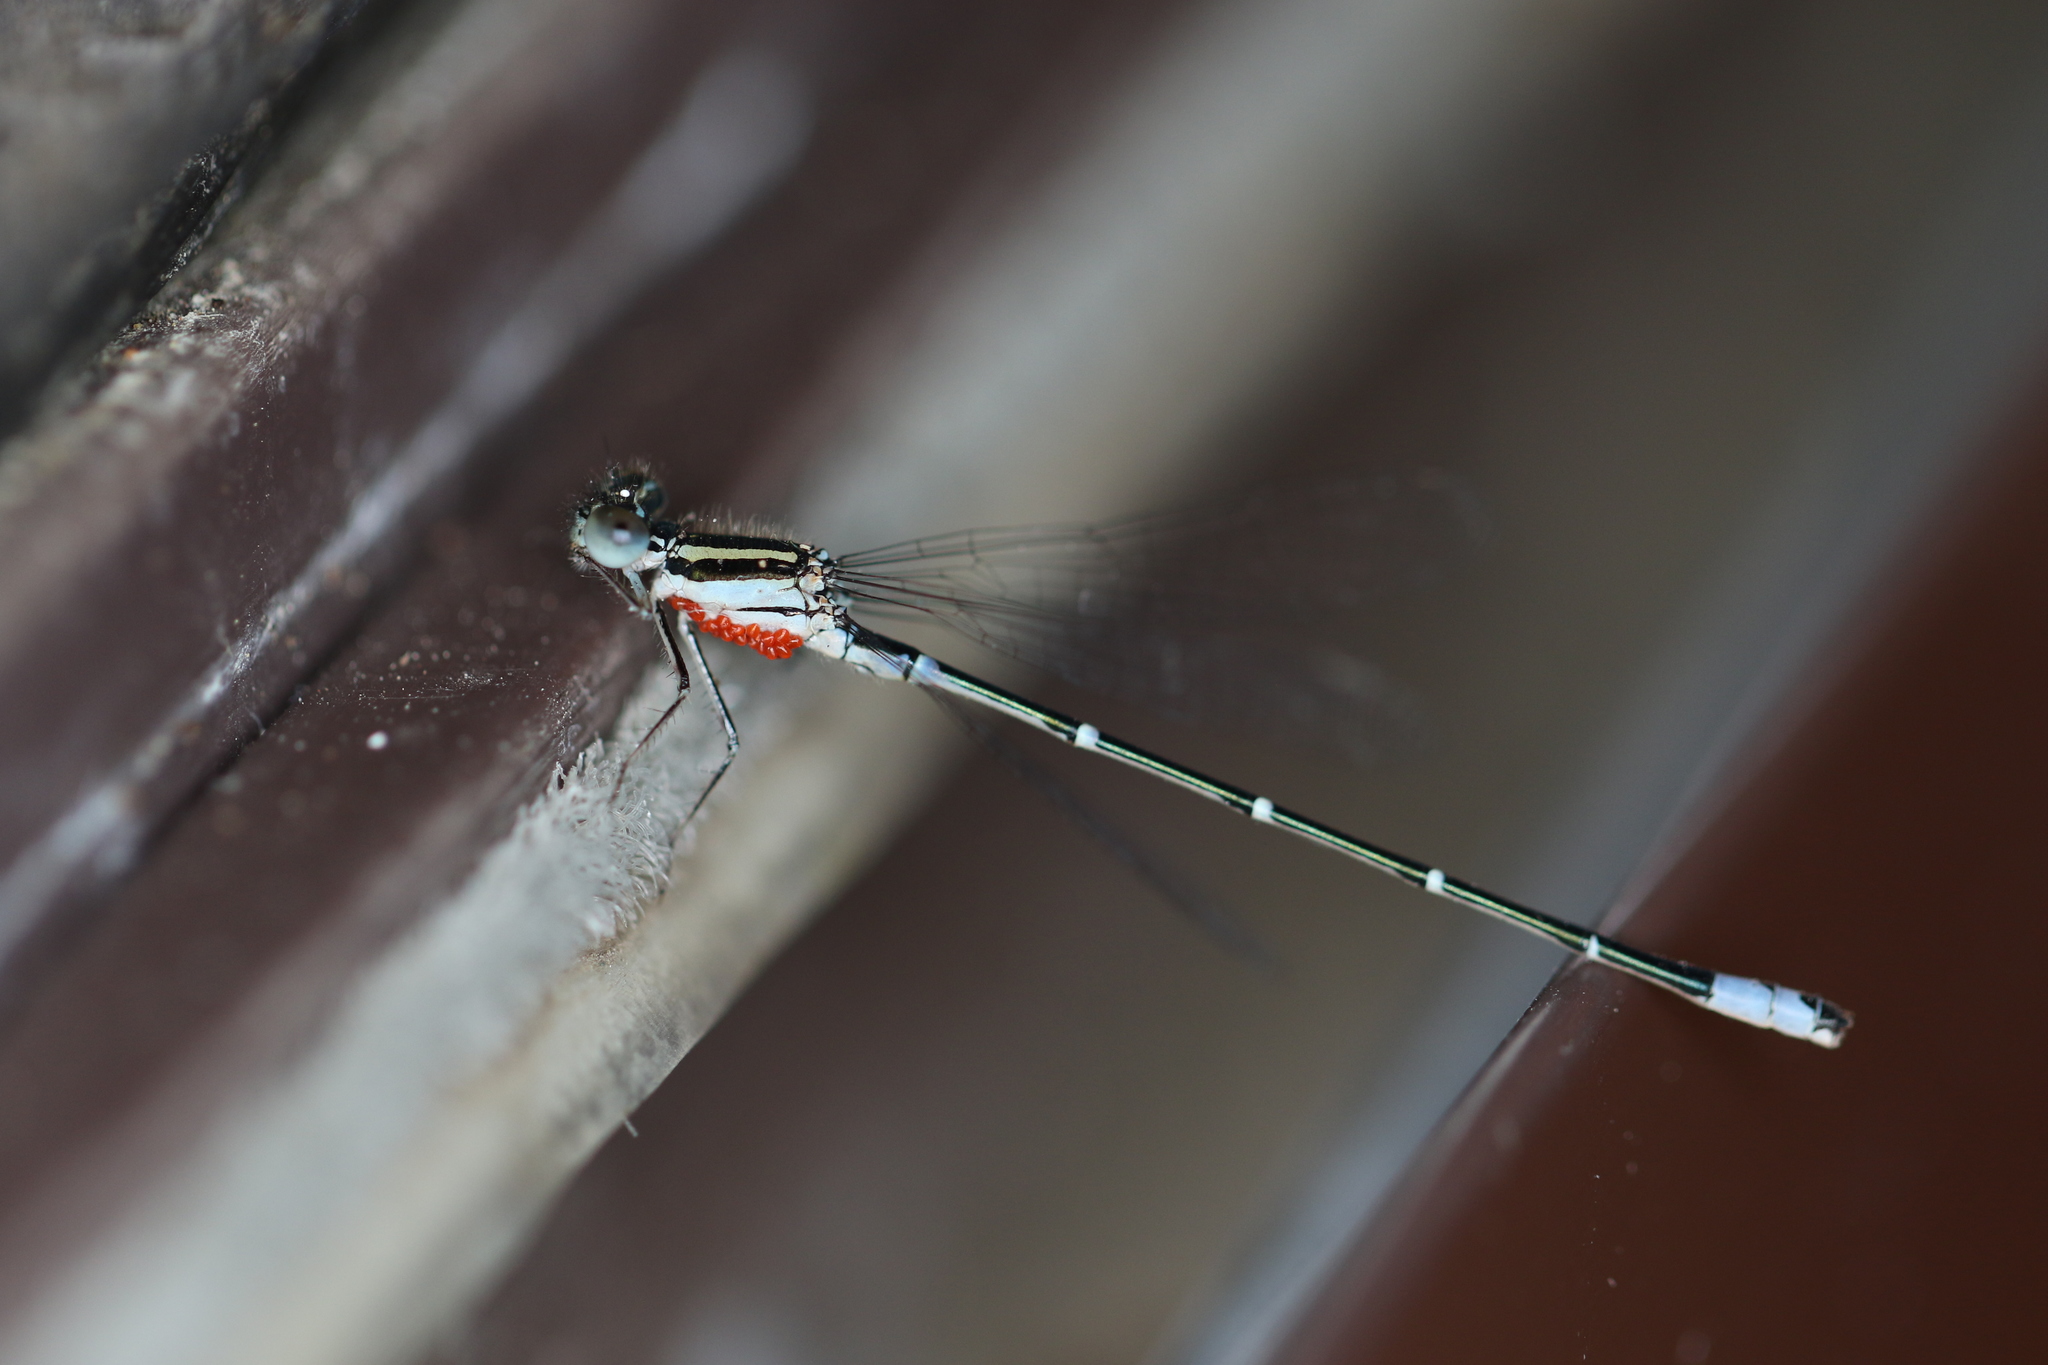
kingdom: Animalia
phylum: Arthropoda
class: Insecta
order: Odonata
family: Coenagrionidae
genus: Austroagrion
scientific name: Austroagrion watsoni
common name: Eastern billabongfly
